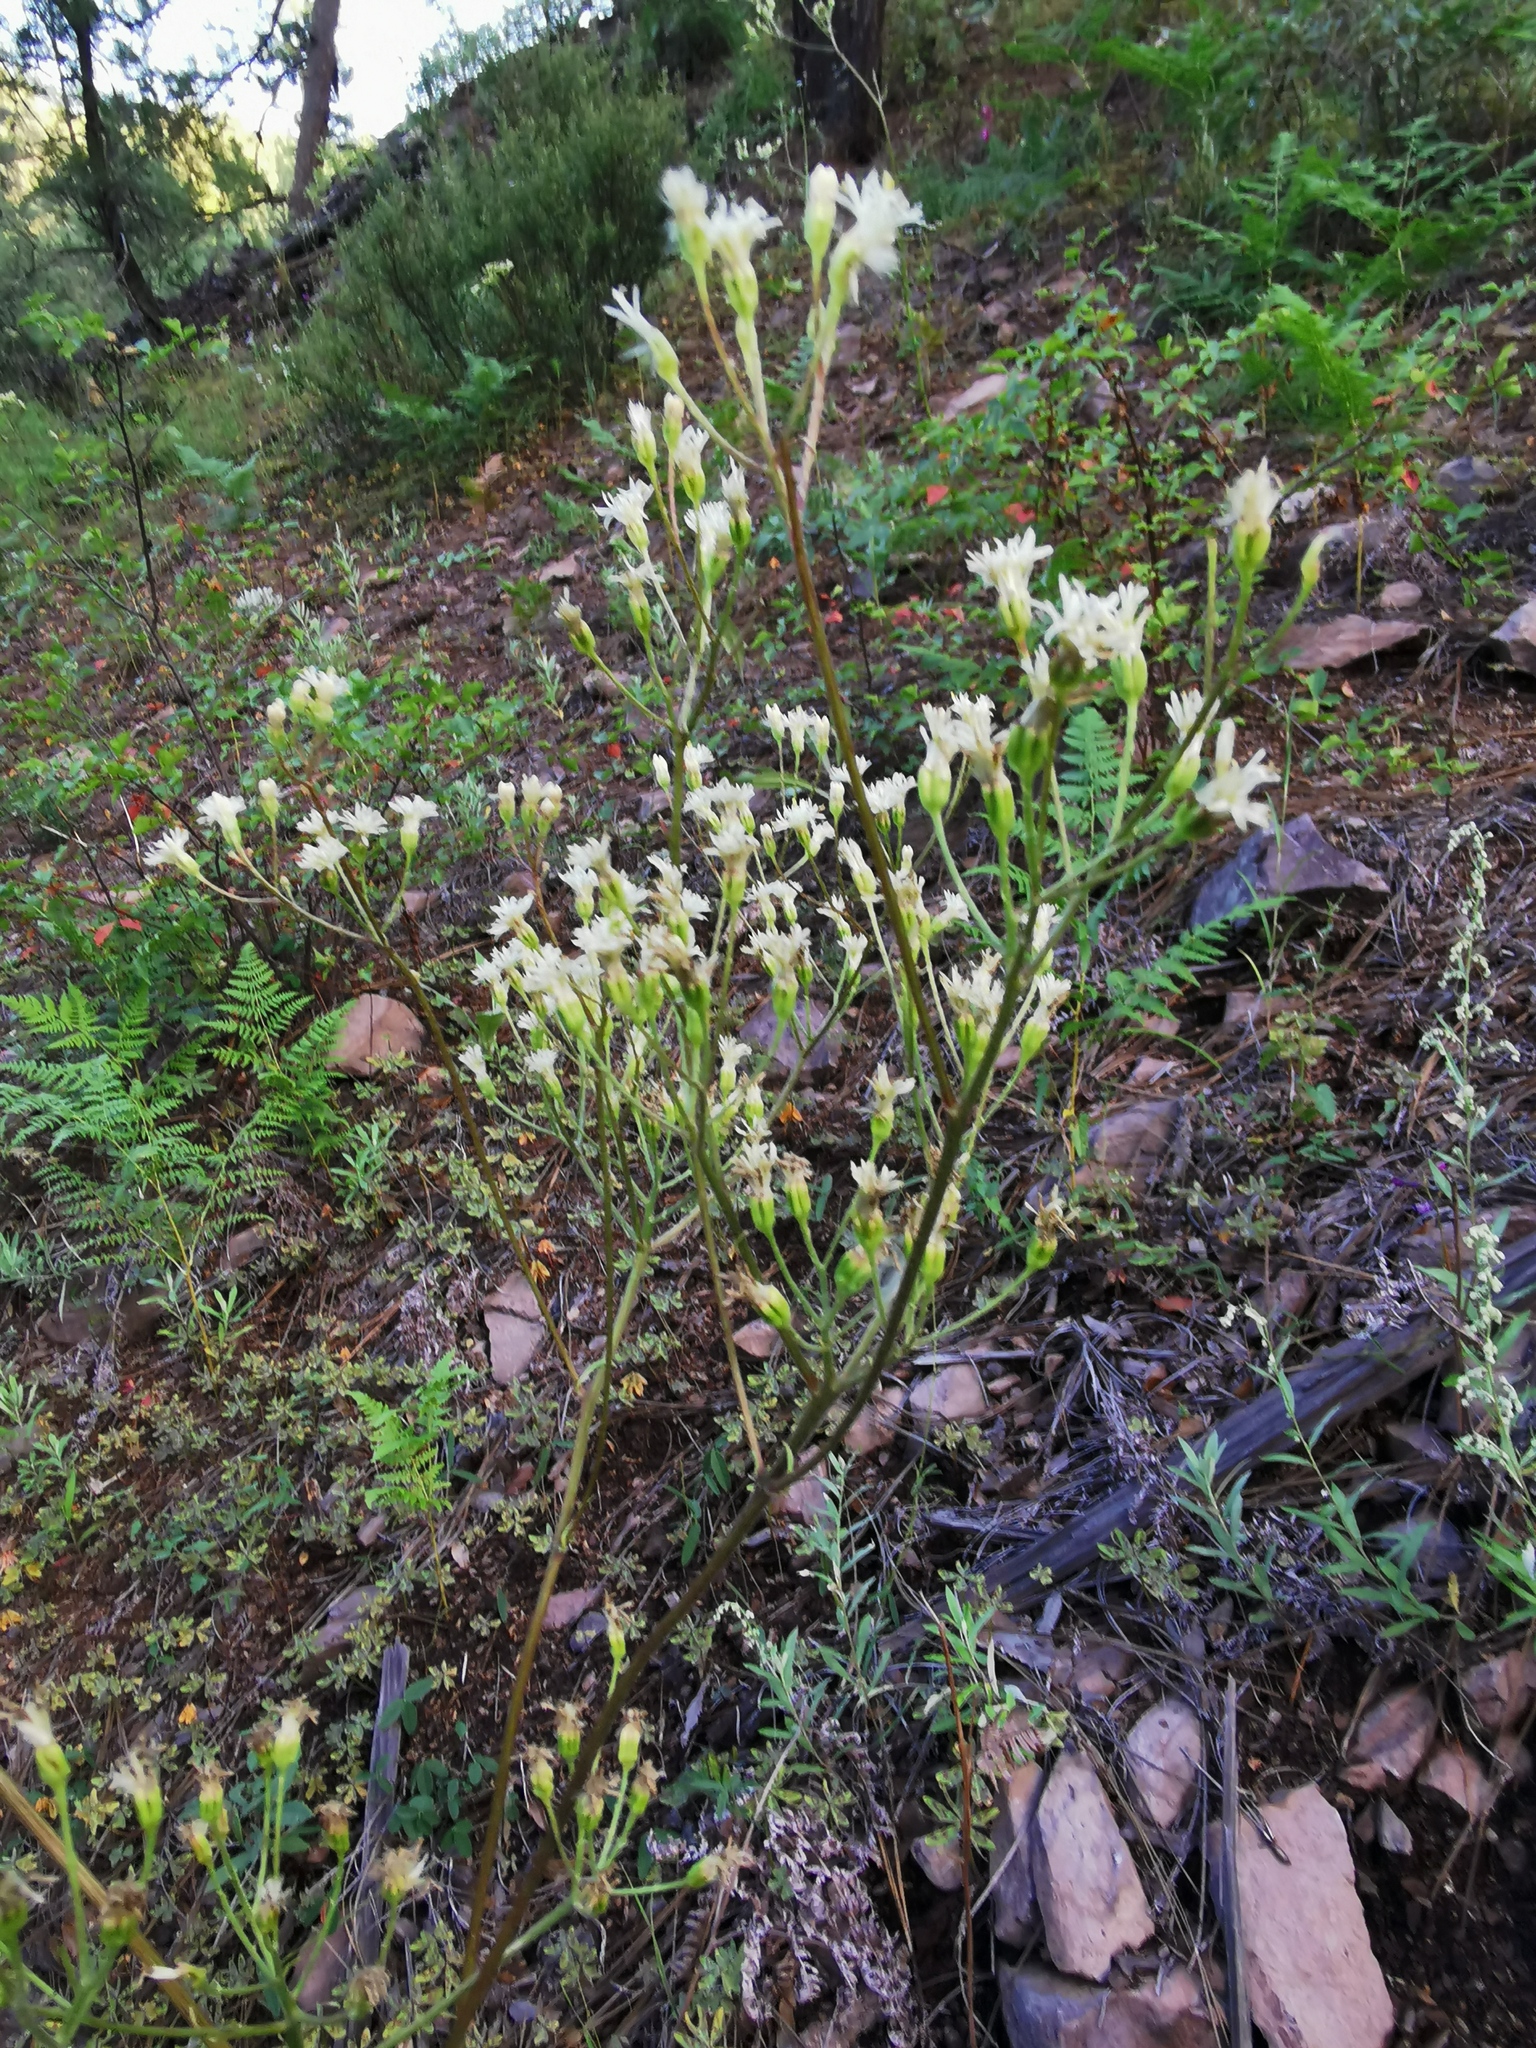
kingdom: Plantae
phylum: Tracheophyta
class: Magnoliopsida
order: Asterales
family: Asteraceae
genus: Psacalium
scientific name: Psacalium decompositum
